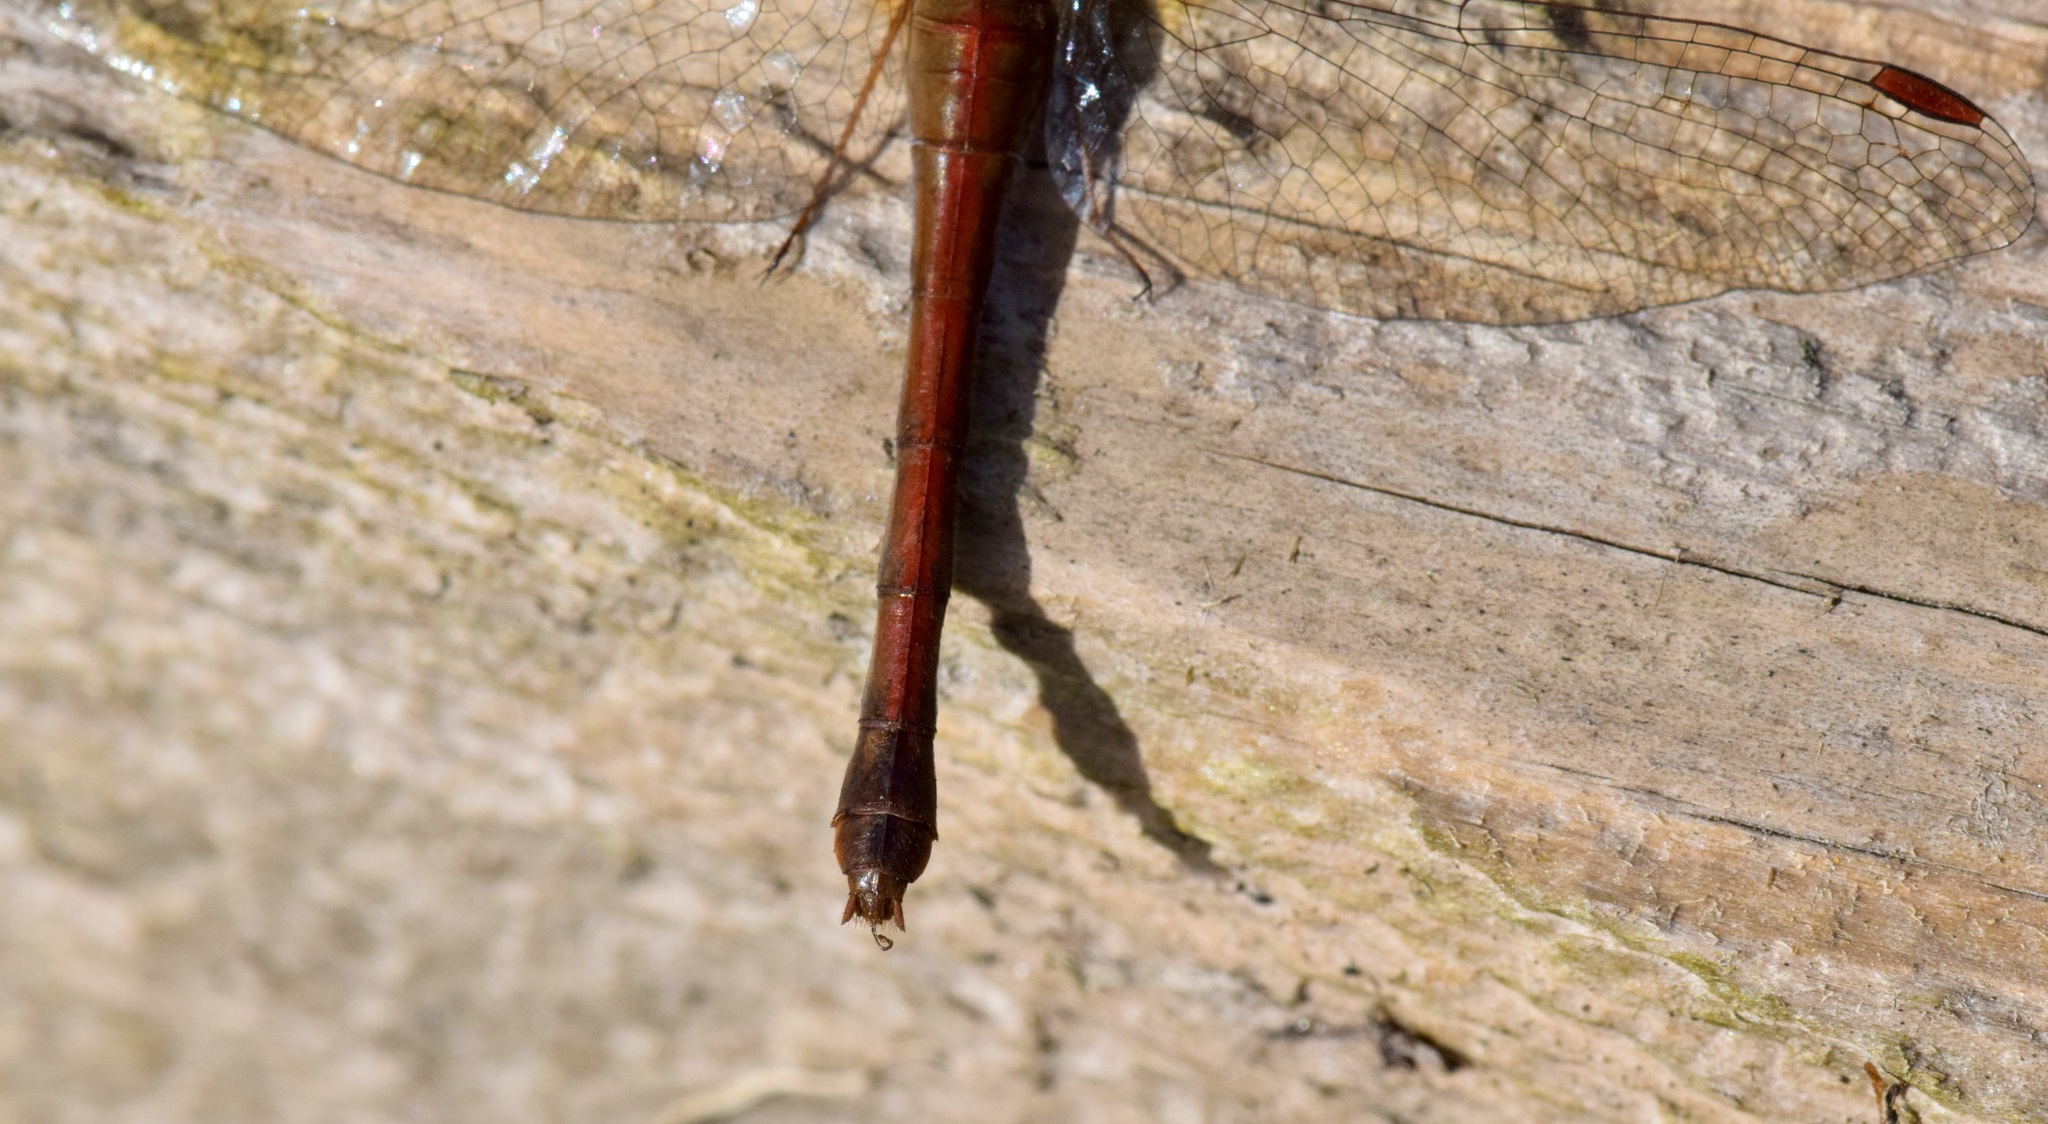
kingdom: Animalia
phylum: Arthropoda
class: Insecta
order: Odonata
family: Libellulidae
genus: Sympetrum
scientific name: Sympetrum vicinum
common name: Autumn meadowhawk
